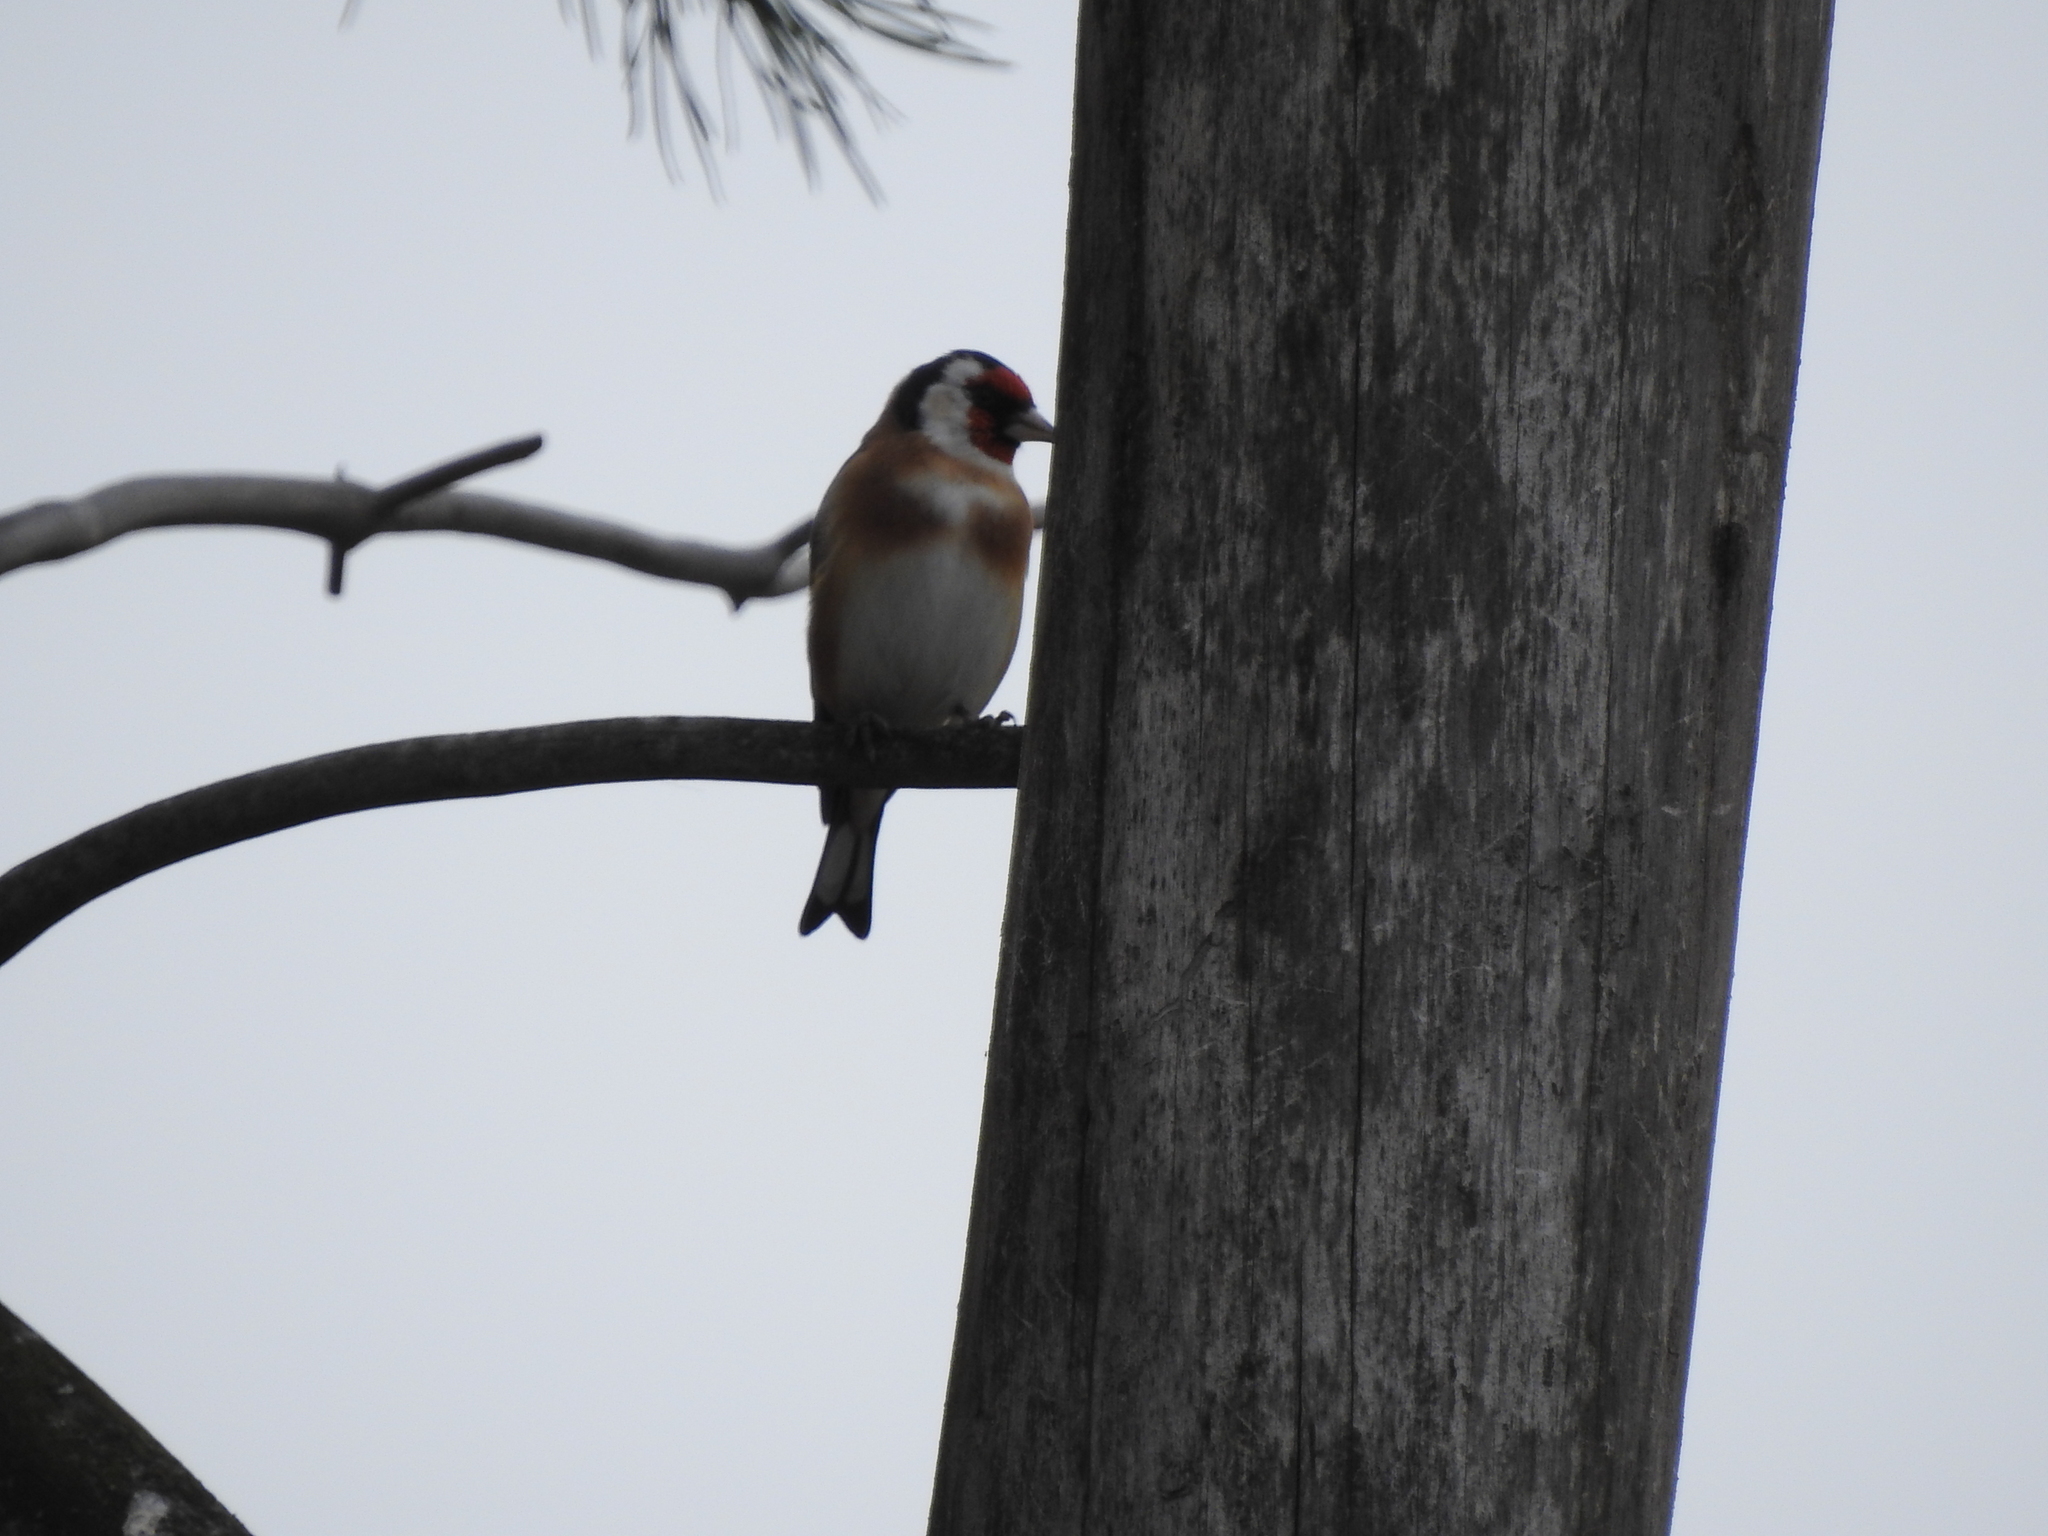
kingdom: Animalia
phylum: Chordata
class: Aves
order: Passeriformes
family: Fringillidae
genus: Carduelis
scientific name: Carduelis carduelis
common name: European goldfinch
